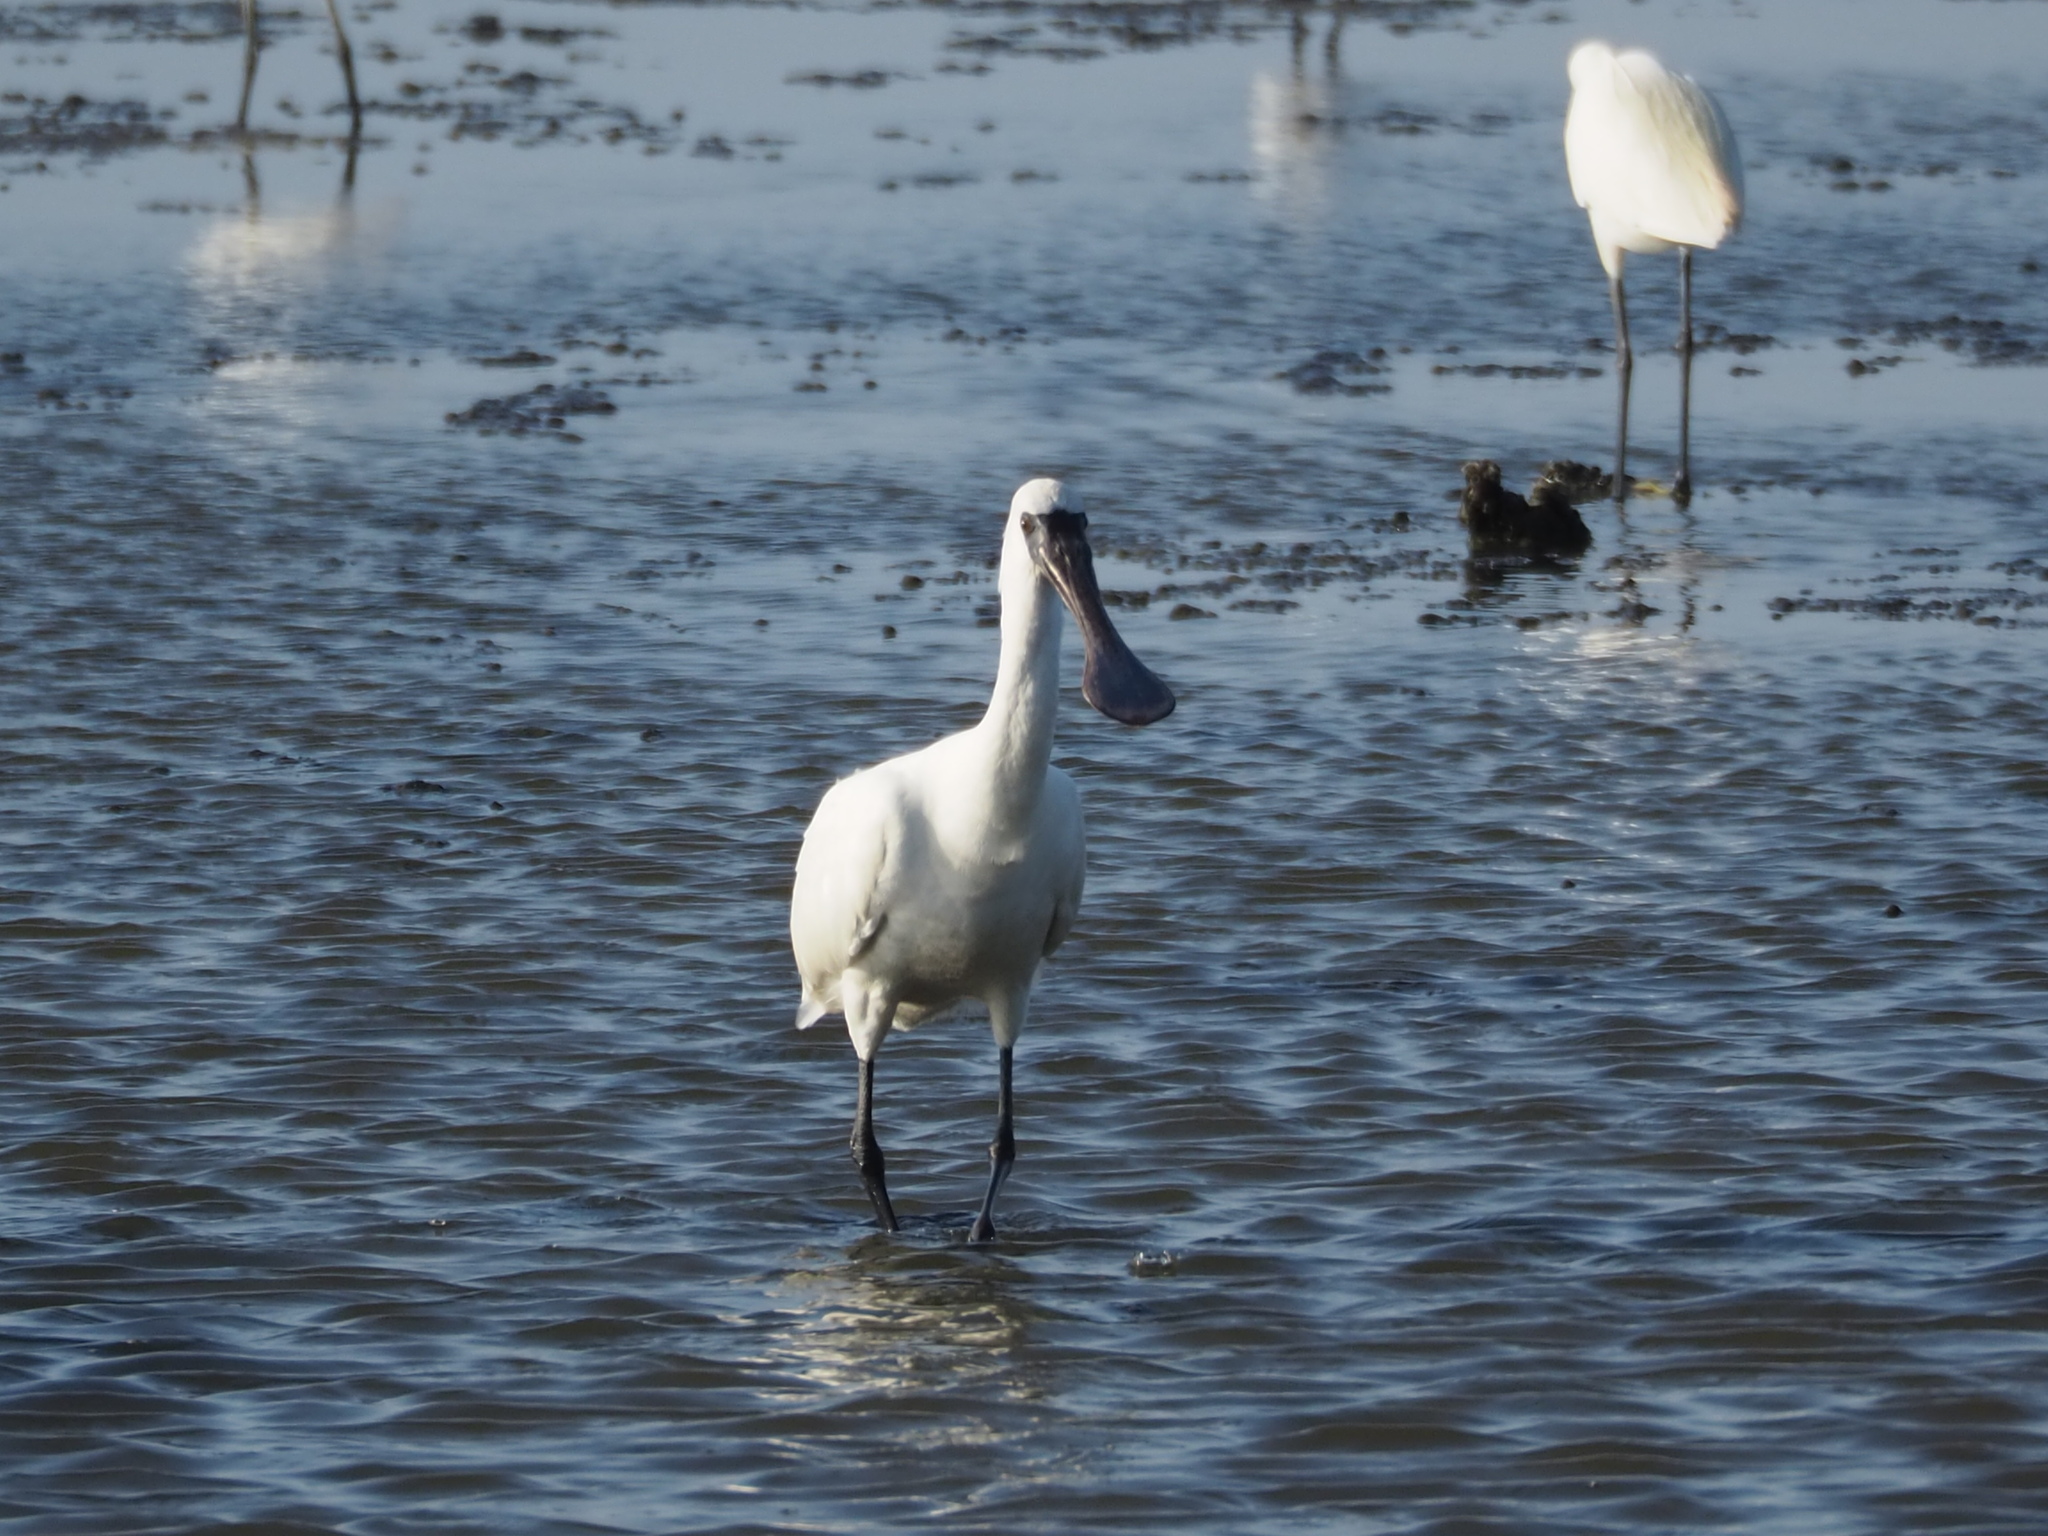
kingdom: Animalia
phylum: Chordata
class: Aves
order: Pelecaniformes
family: Threskiornithidae
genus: Platalea
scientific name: Platalea minor
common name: Black-faced spoonbill
